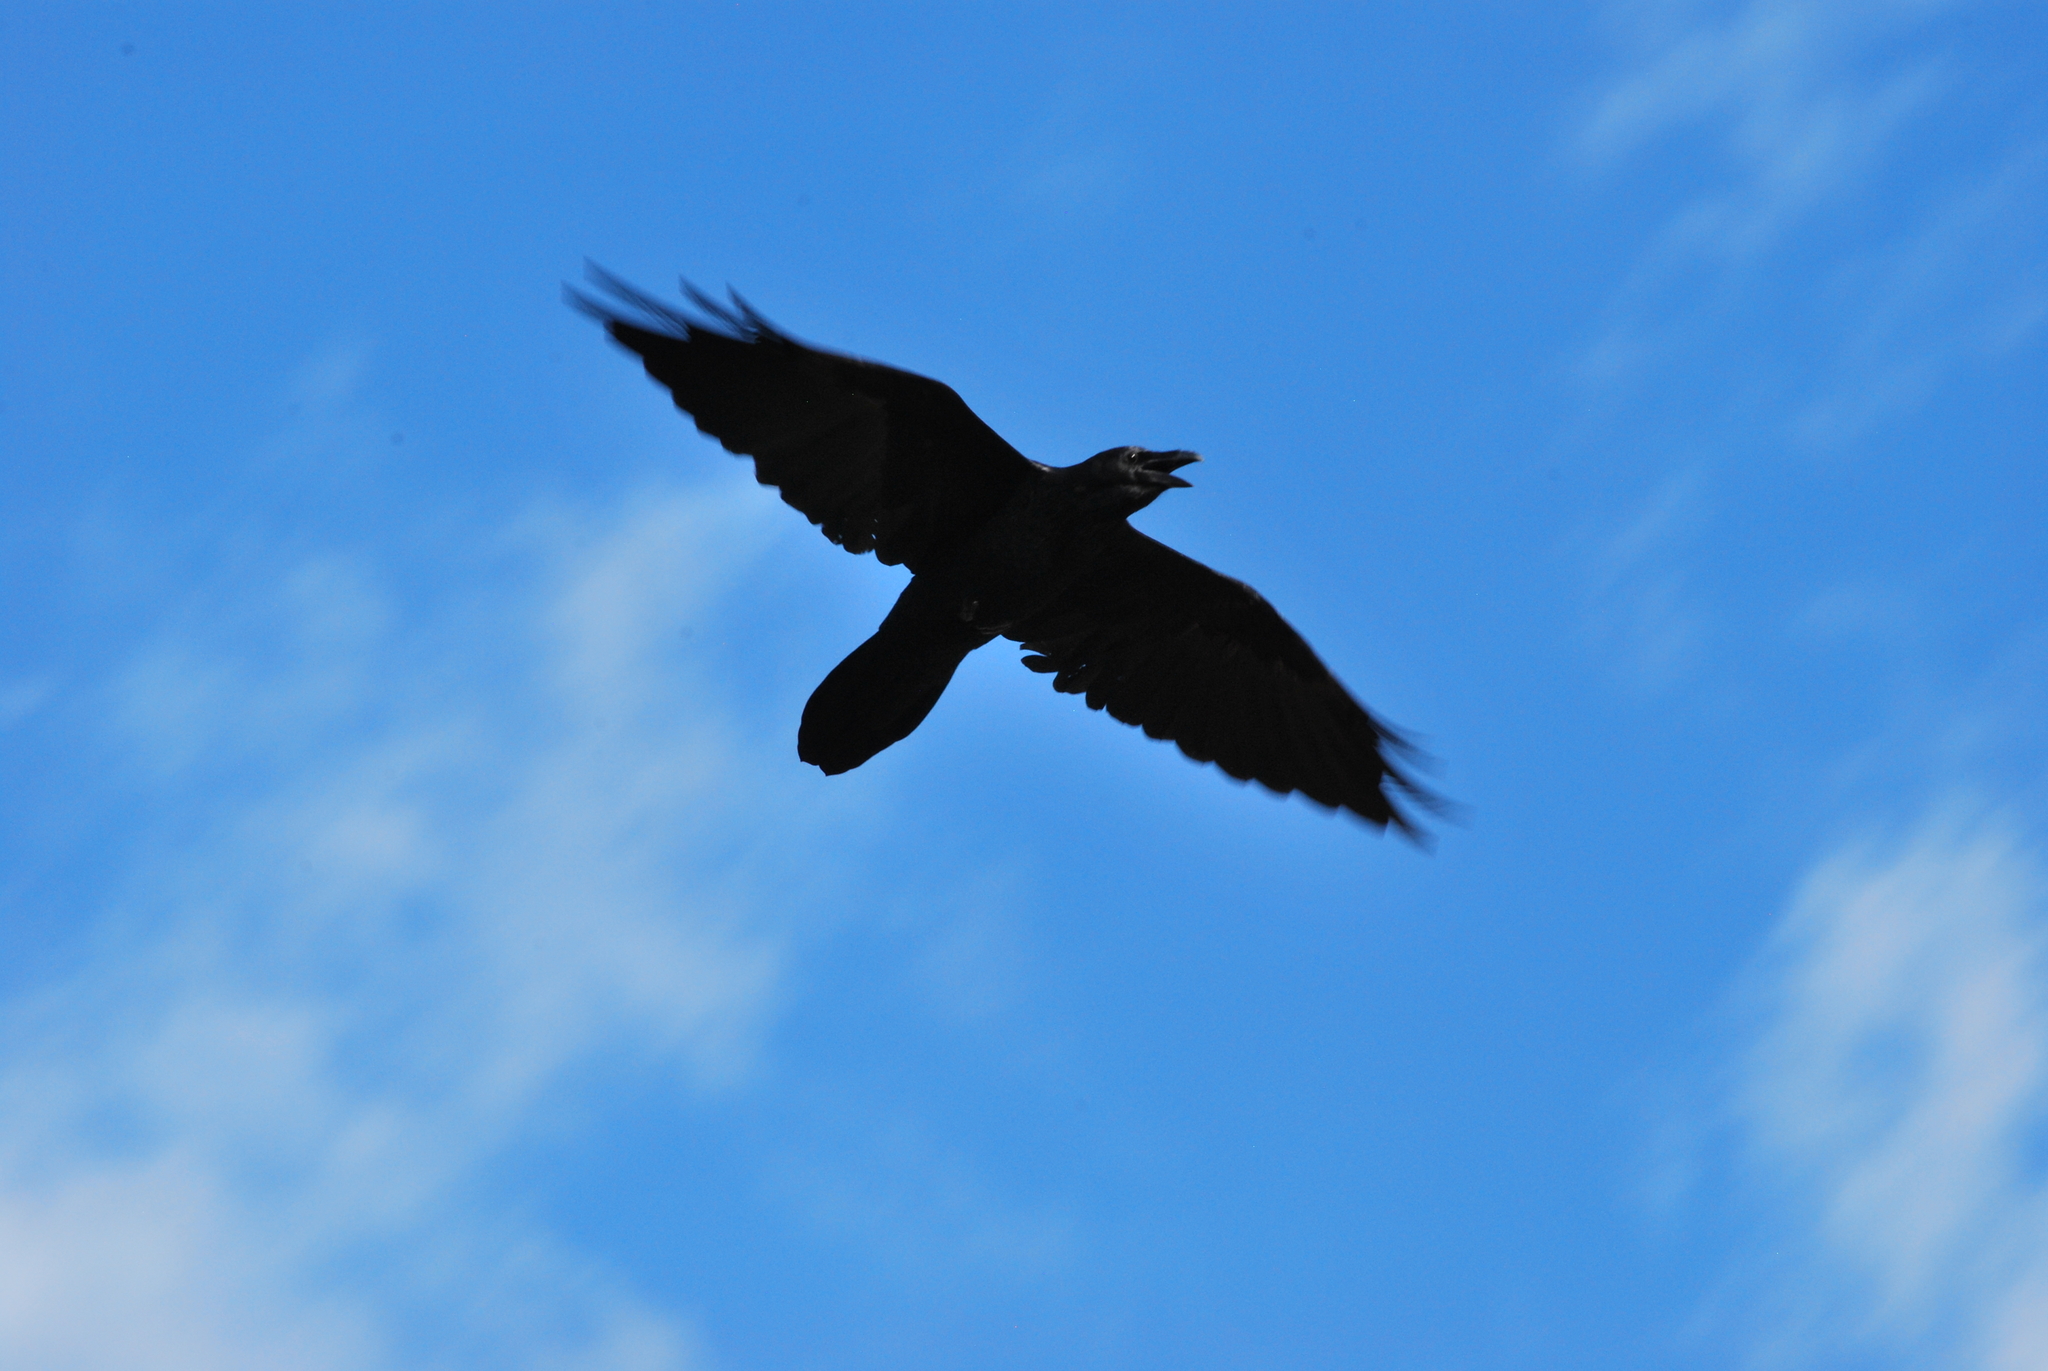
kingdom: Animalia
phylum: Chordata
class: Aves
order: Passeriformes
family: Corvidae
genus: Corvus
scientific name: Corvus corax
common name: Common raven
